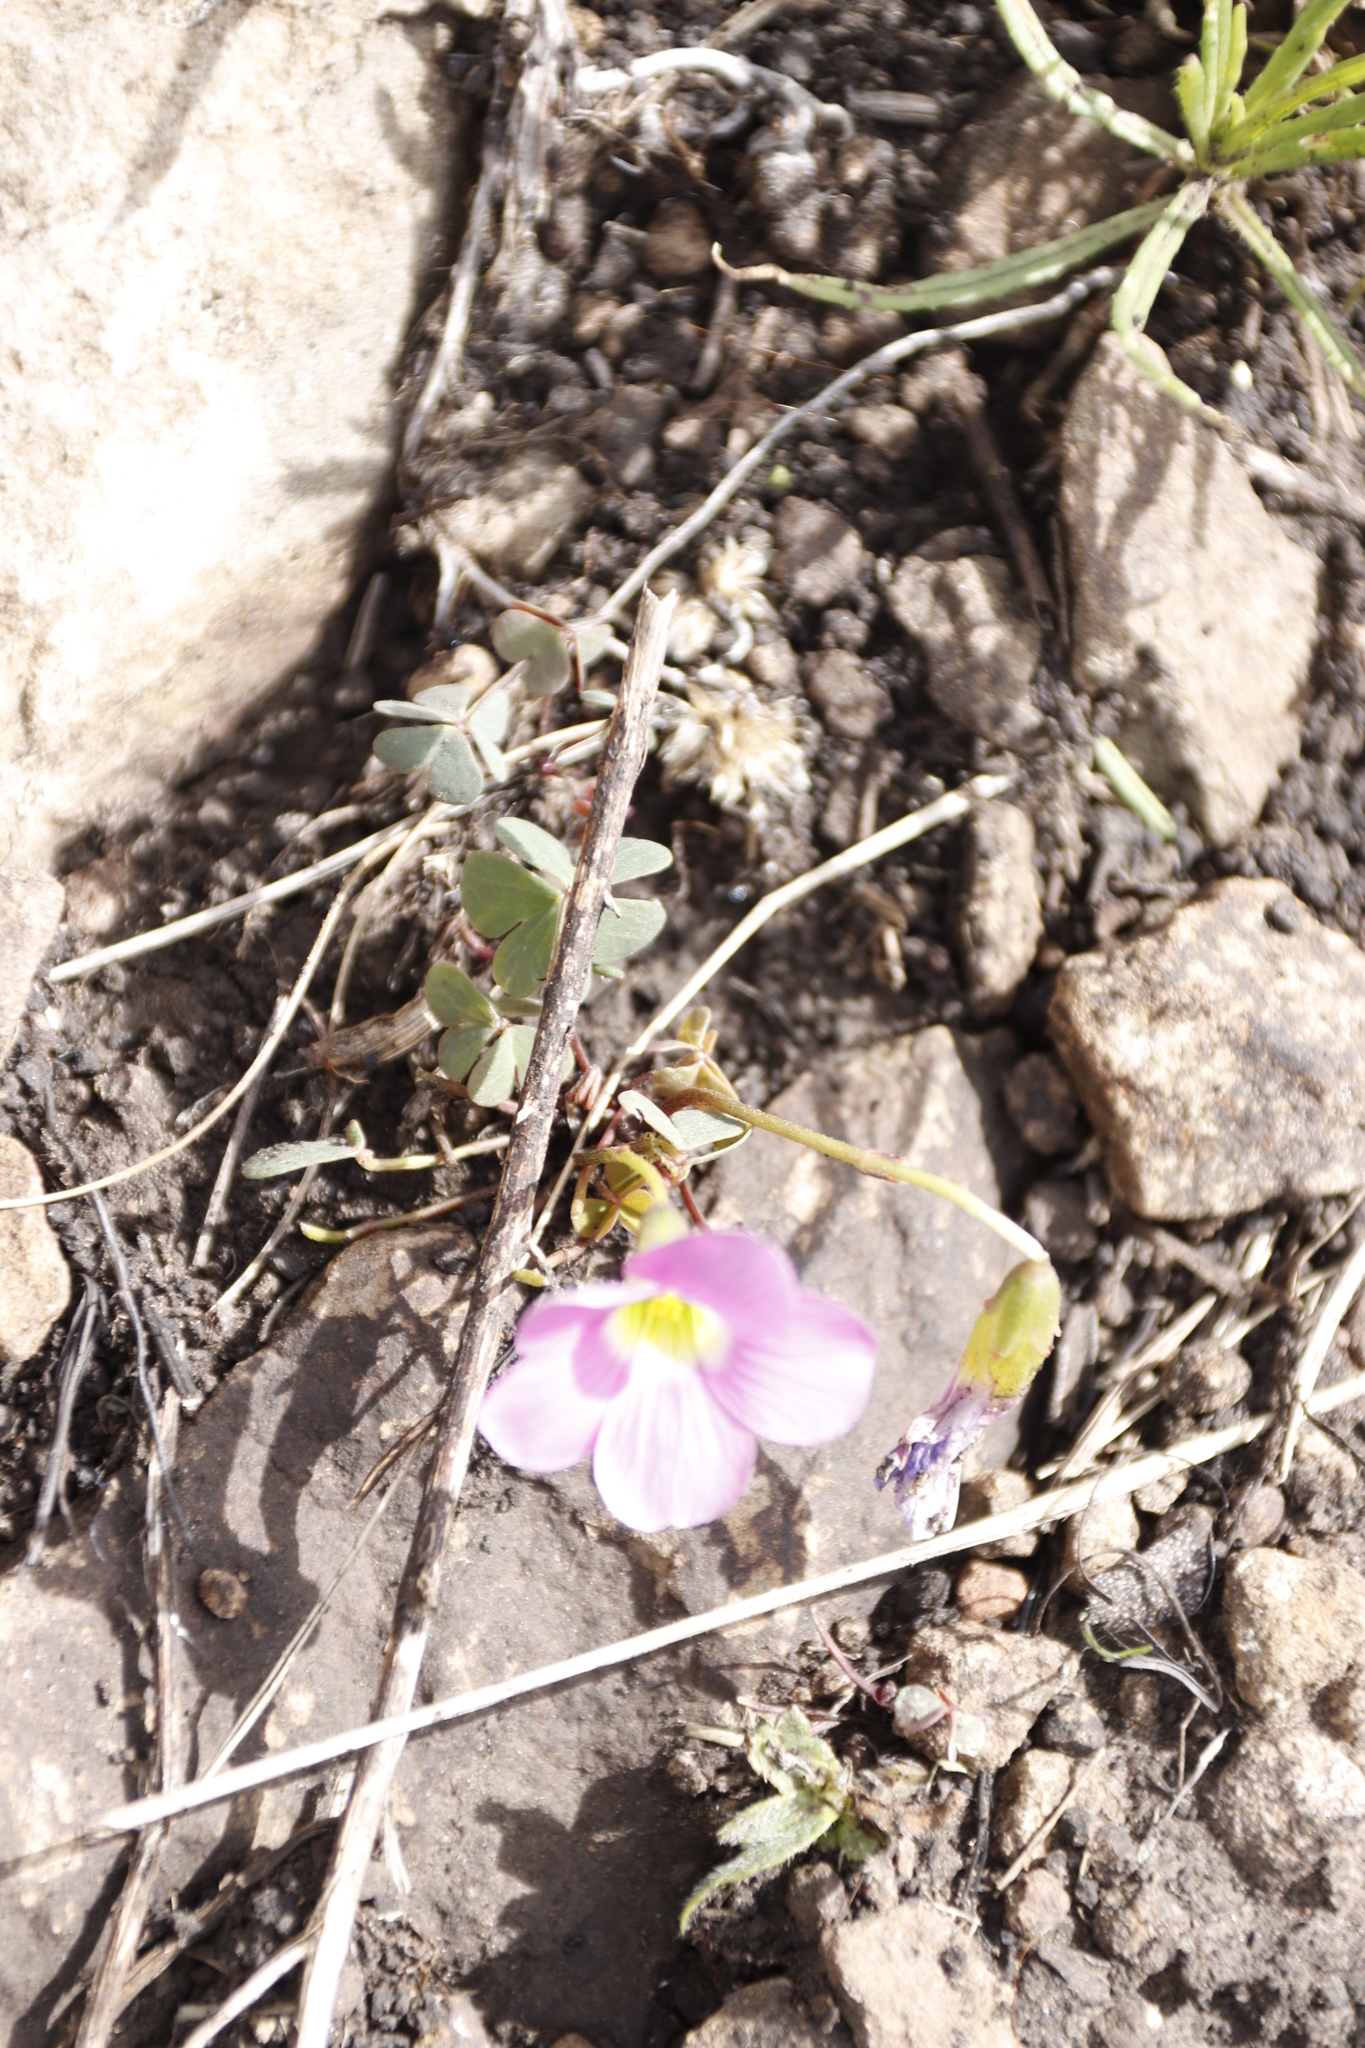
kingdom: Plantae
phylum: Tracheophyta
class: Magnoliopsida
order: Oxalidales
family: Oxalidaceae
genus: Oxalis
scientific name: Oxalis smithiana
